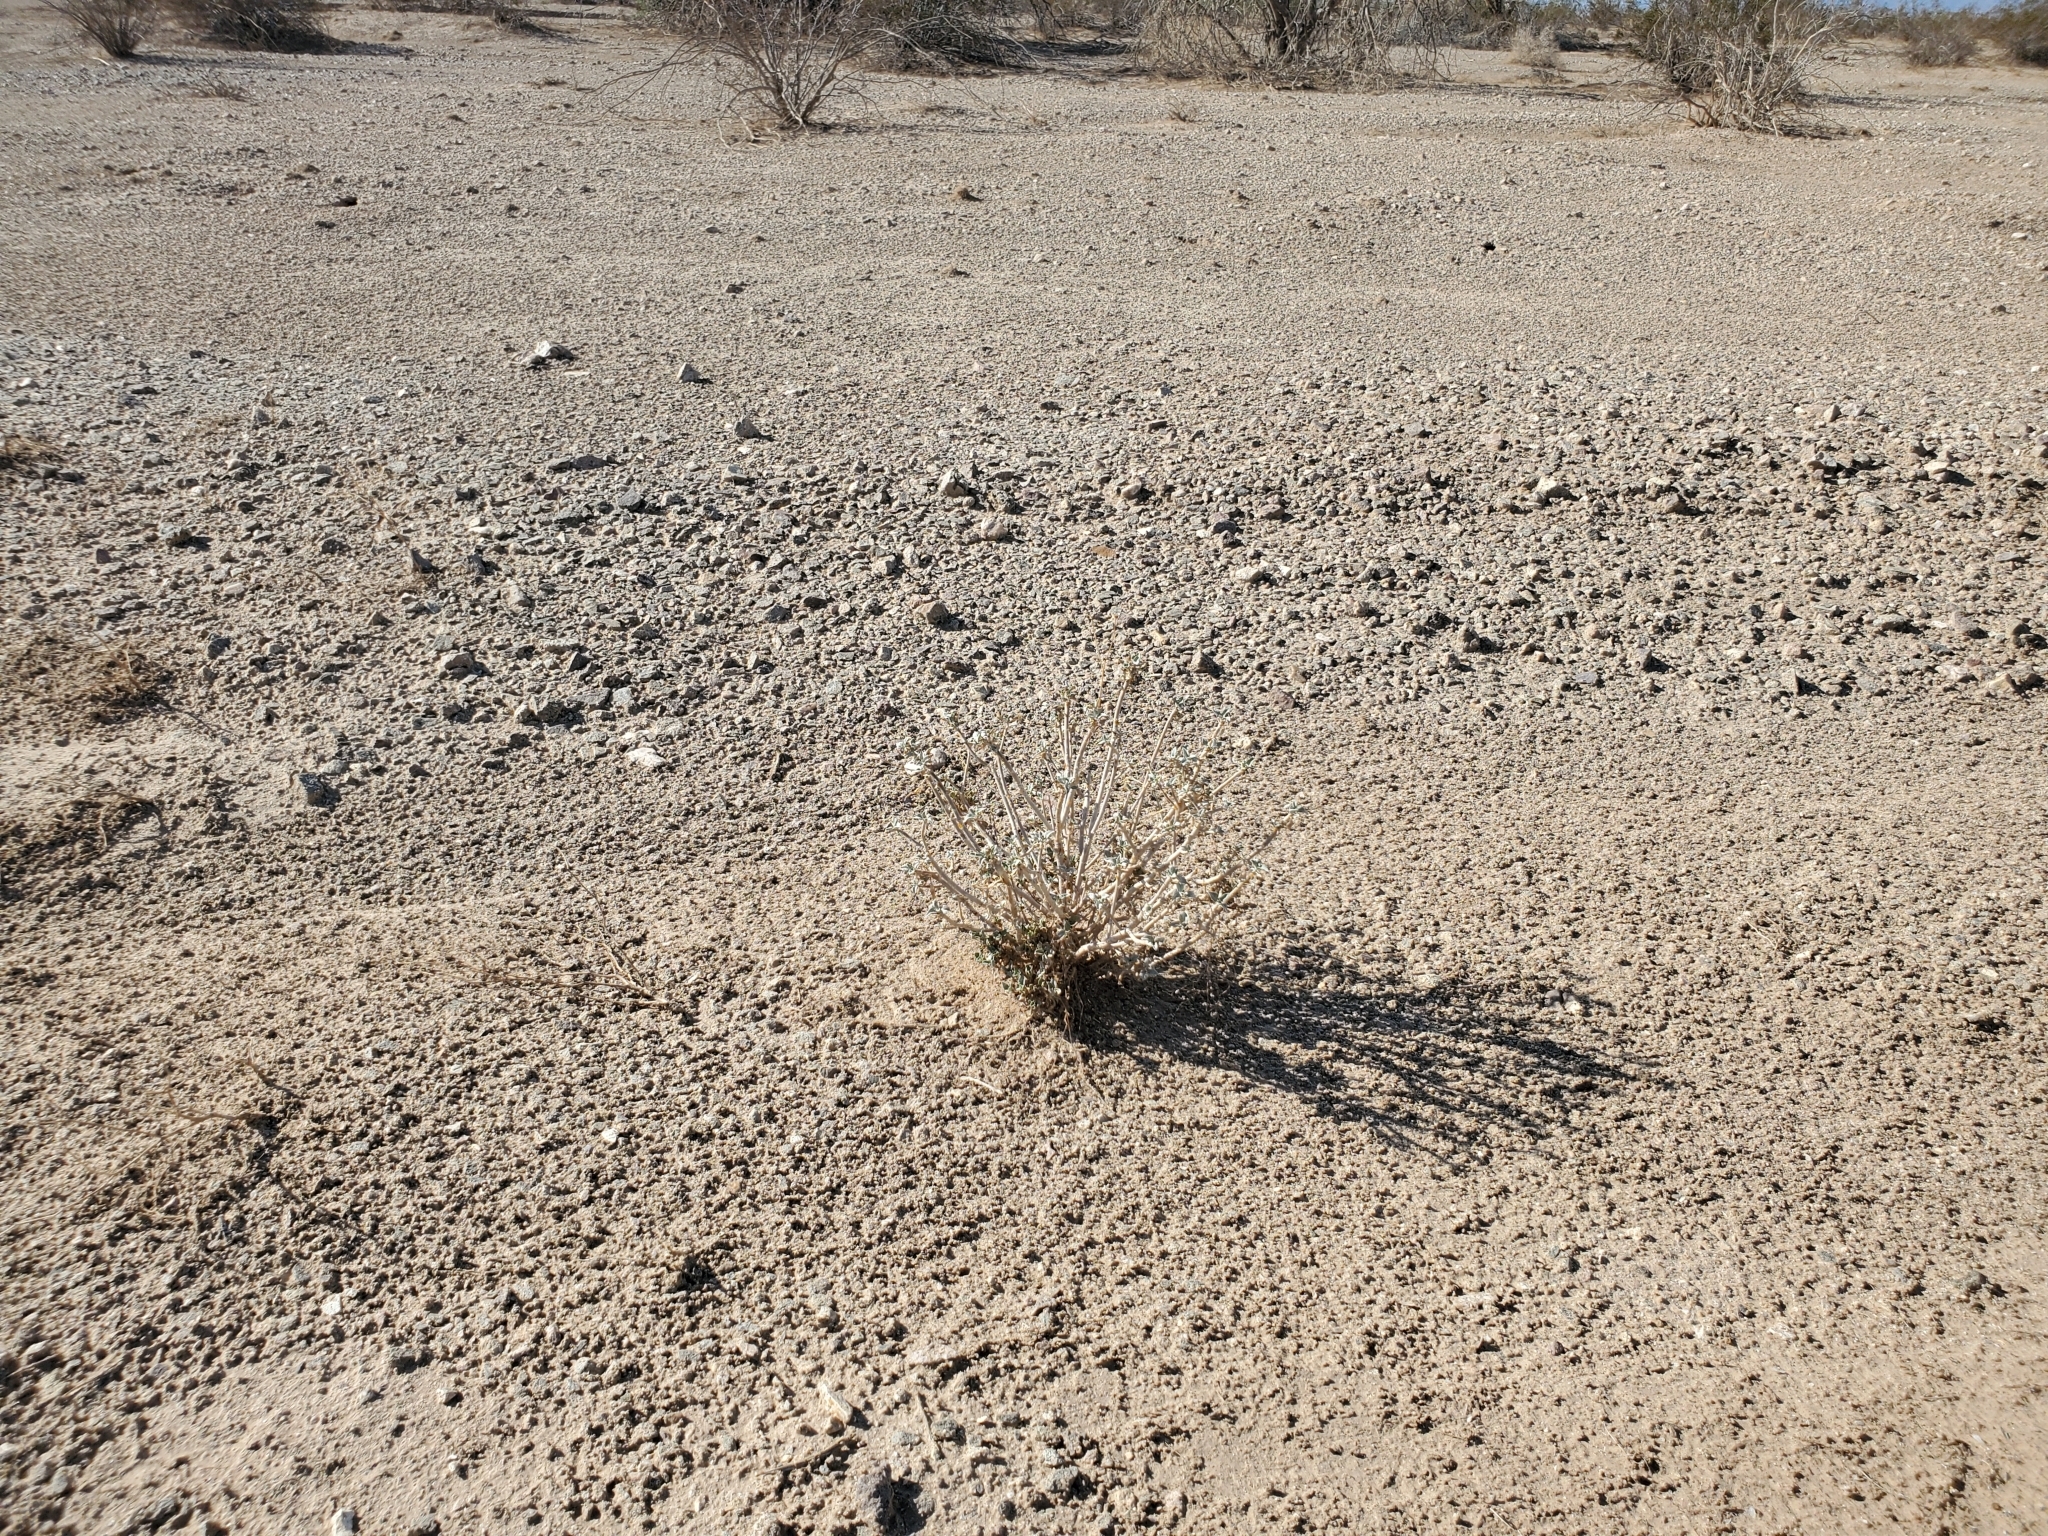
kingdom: Plantae
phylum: Tracheophyta
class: Magnoliopsida
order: Asterales
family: Asteraceae
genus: Encelia
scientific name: Encelia farinosa
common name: Brittlebush
